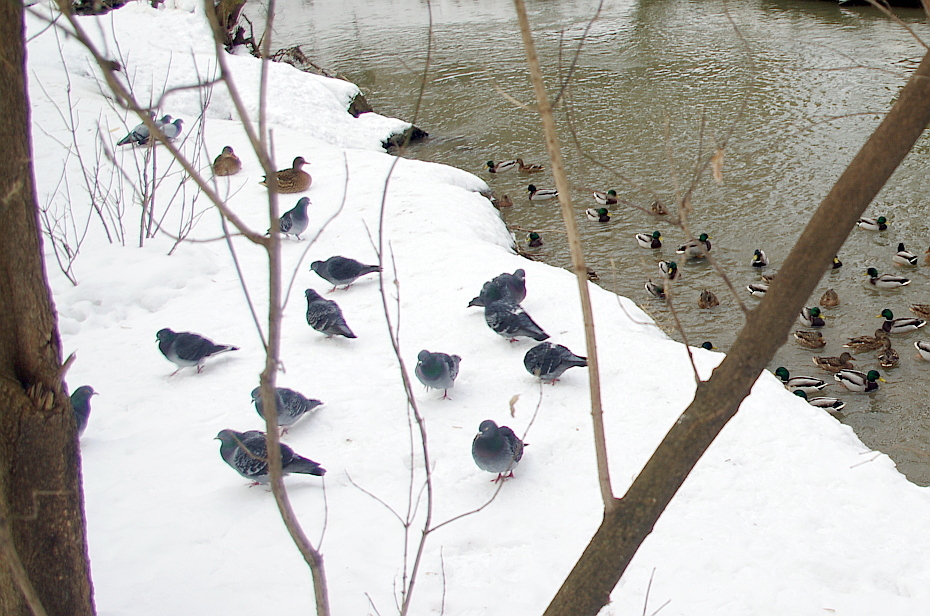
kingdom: Animalia
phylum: Chordata
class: Aves
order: Columbiformes
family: Columbidae
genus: Columba
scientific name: Columba livia
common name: Rock pigeon
